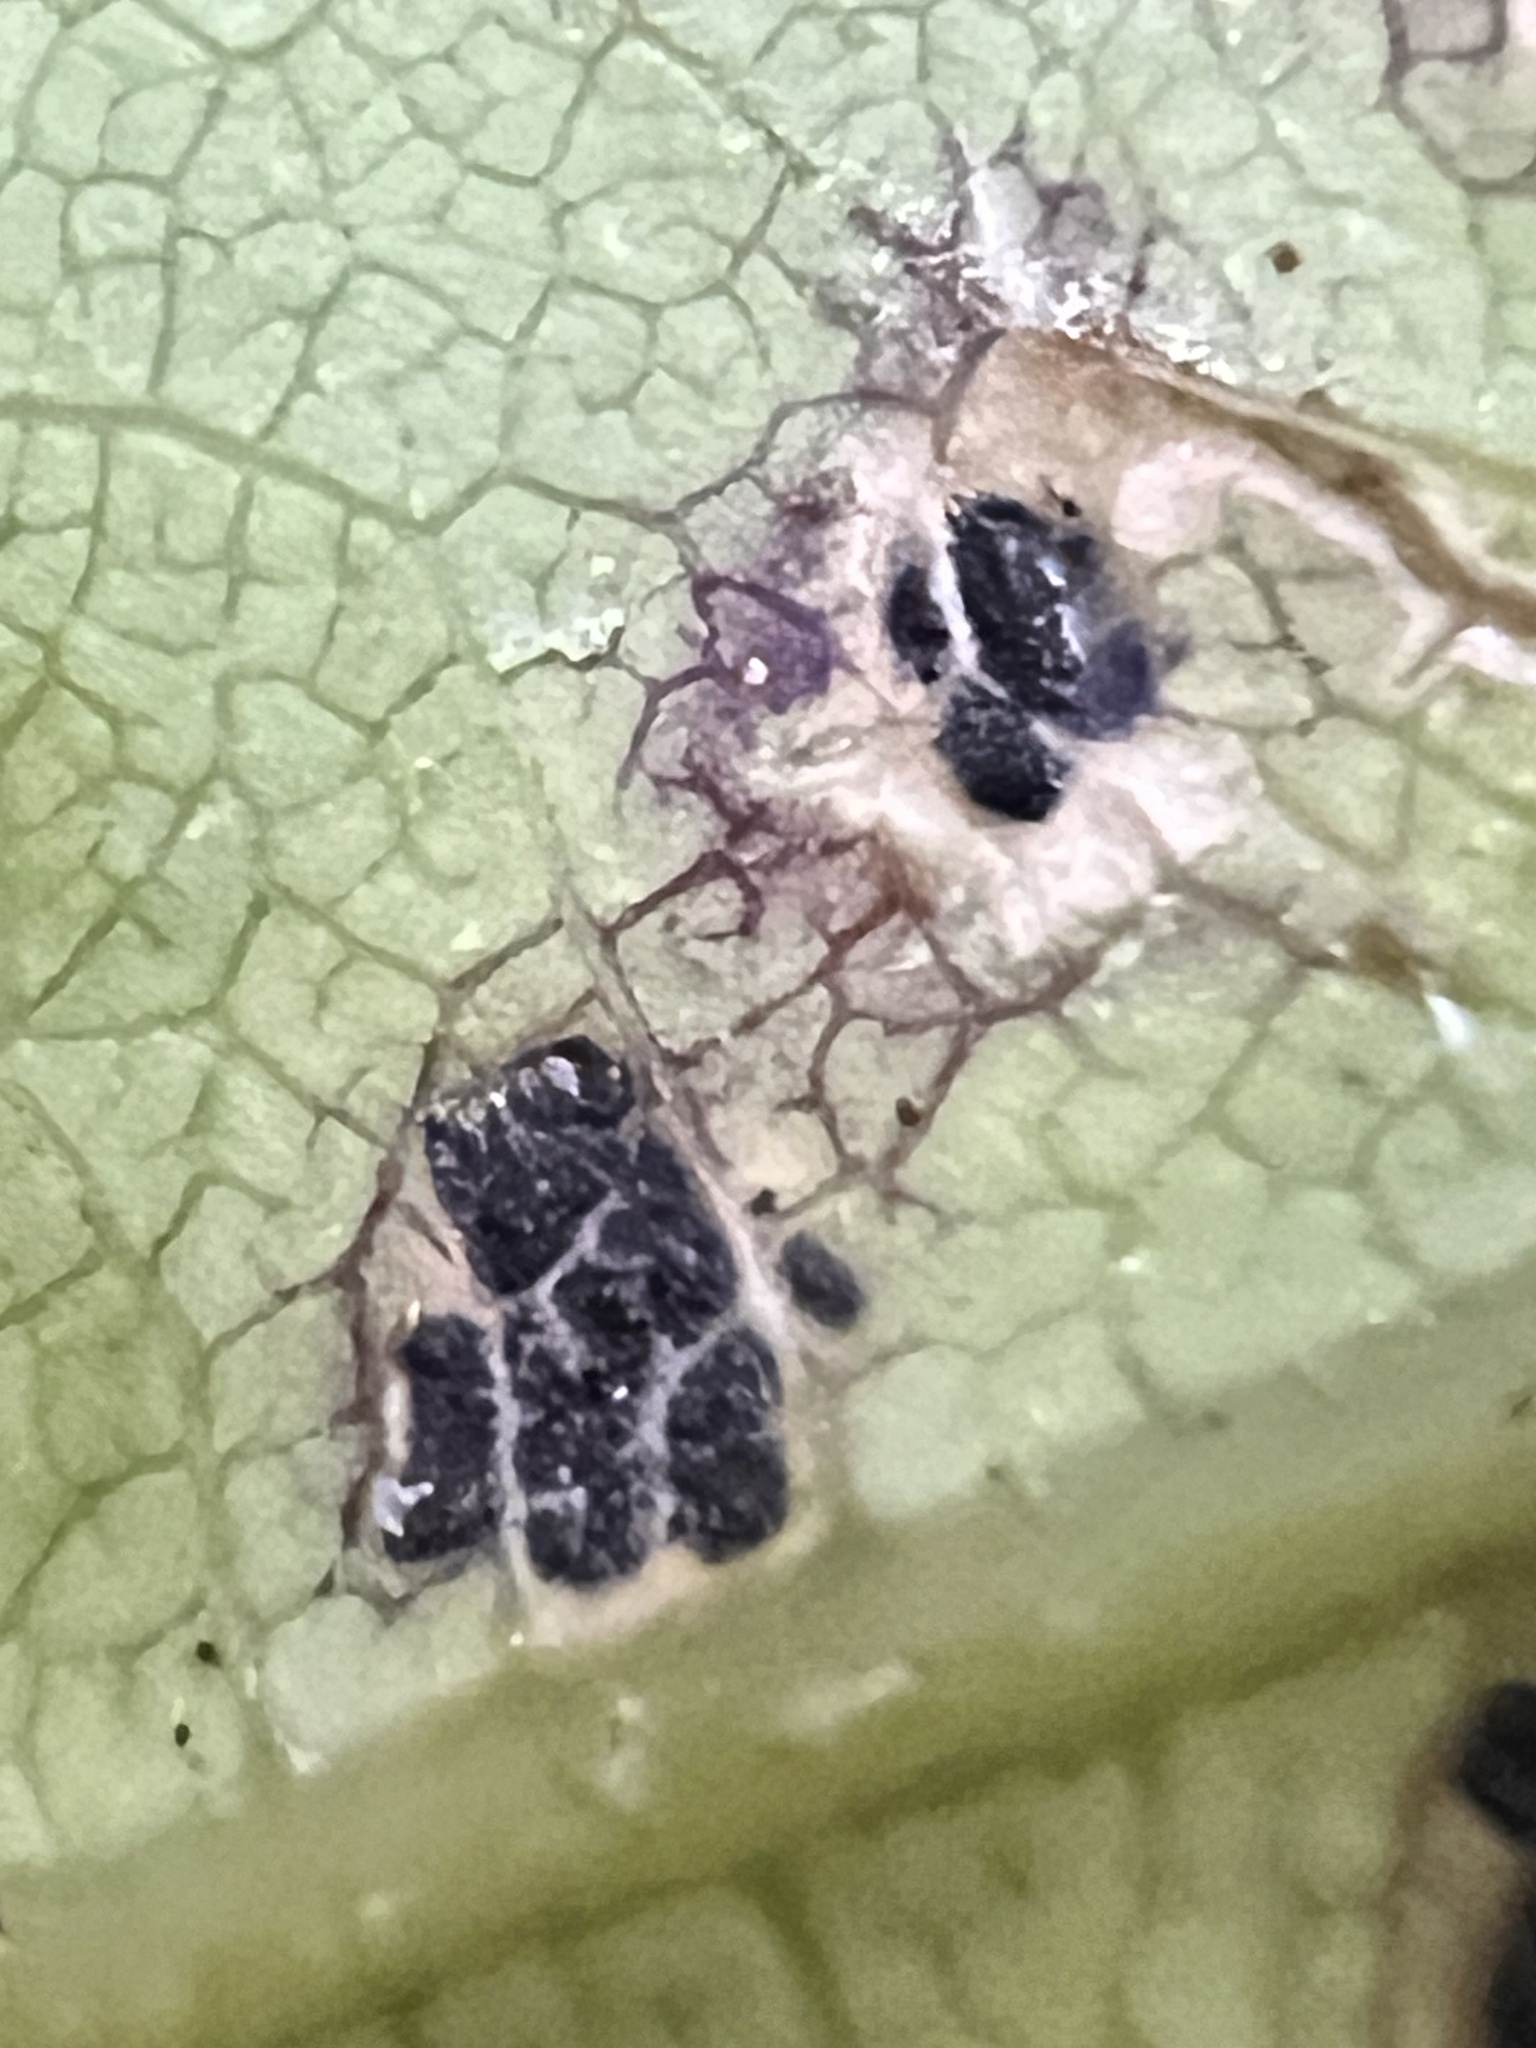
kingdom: Fungi
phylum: Ascomycota
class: Dothideomycetes
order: Botryosphaeriales
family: Planistromellaceae
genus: Diplochorella
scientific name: Diplochorella colensoi
